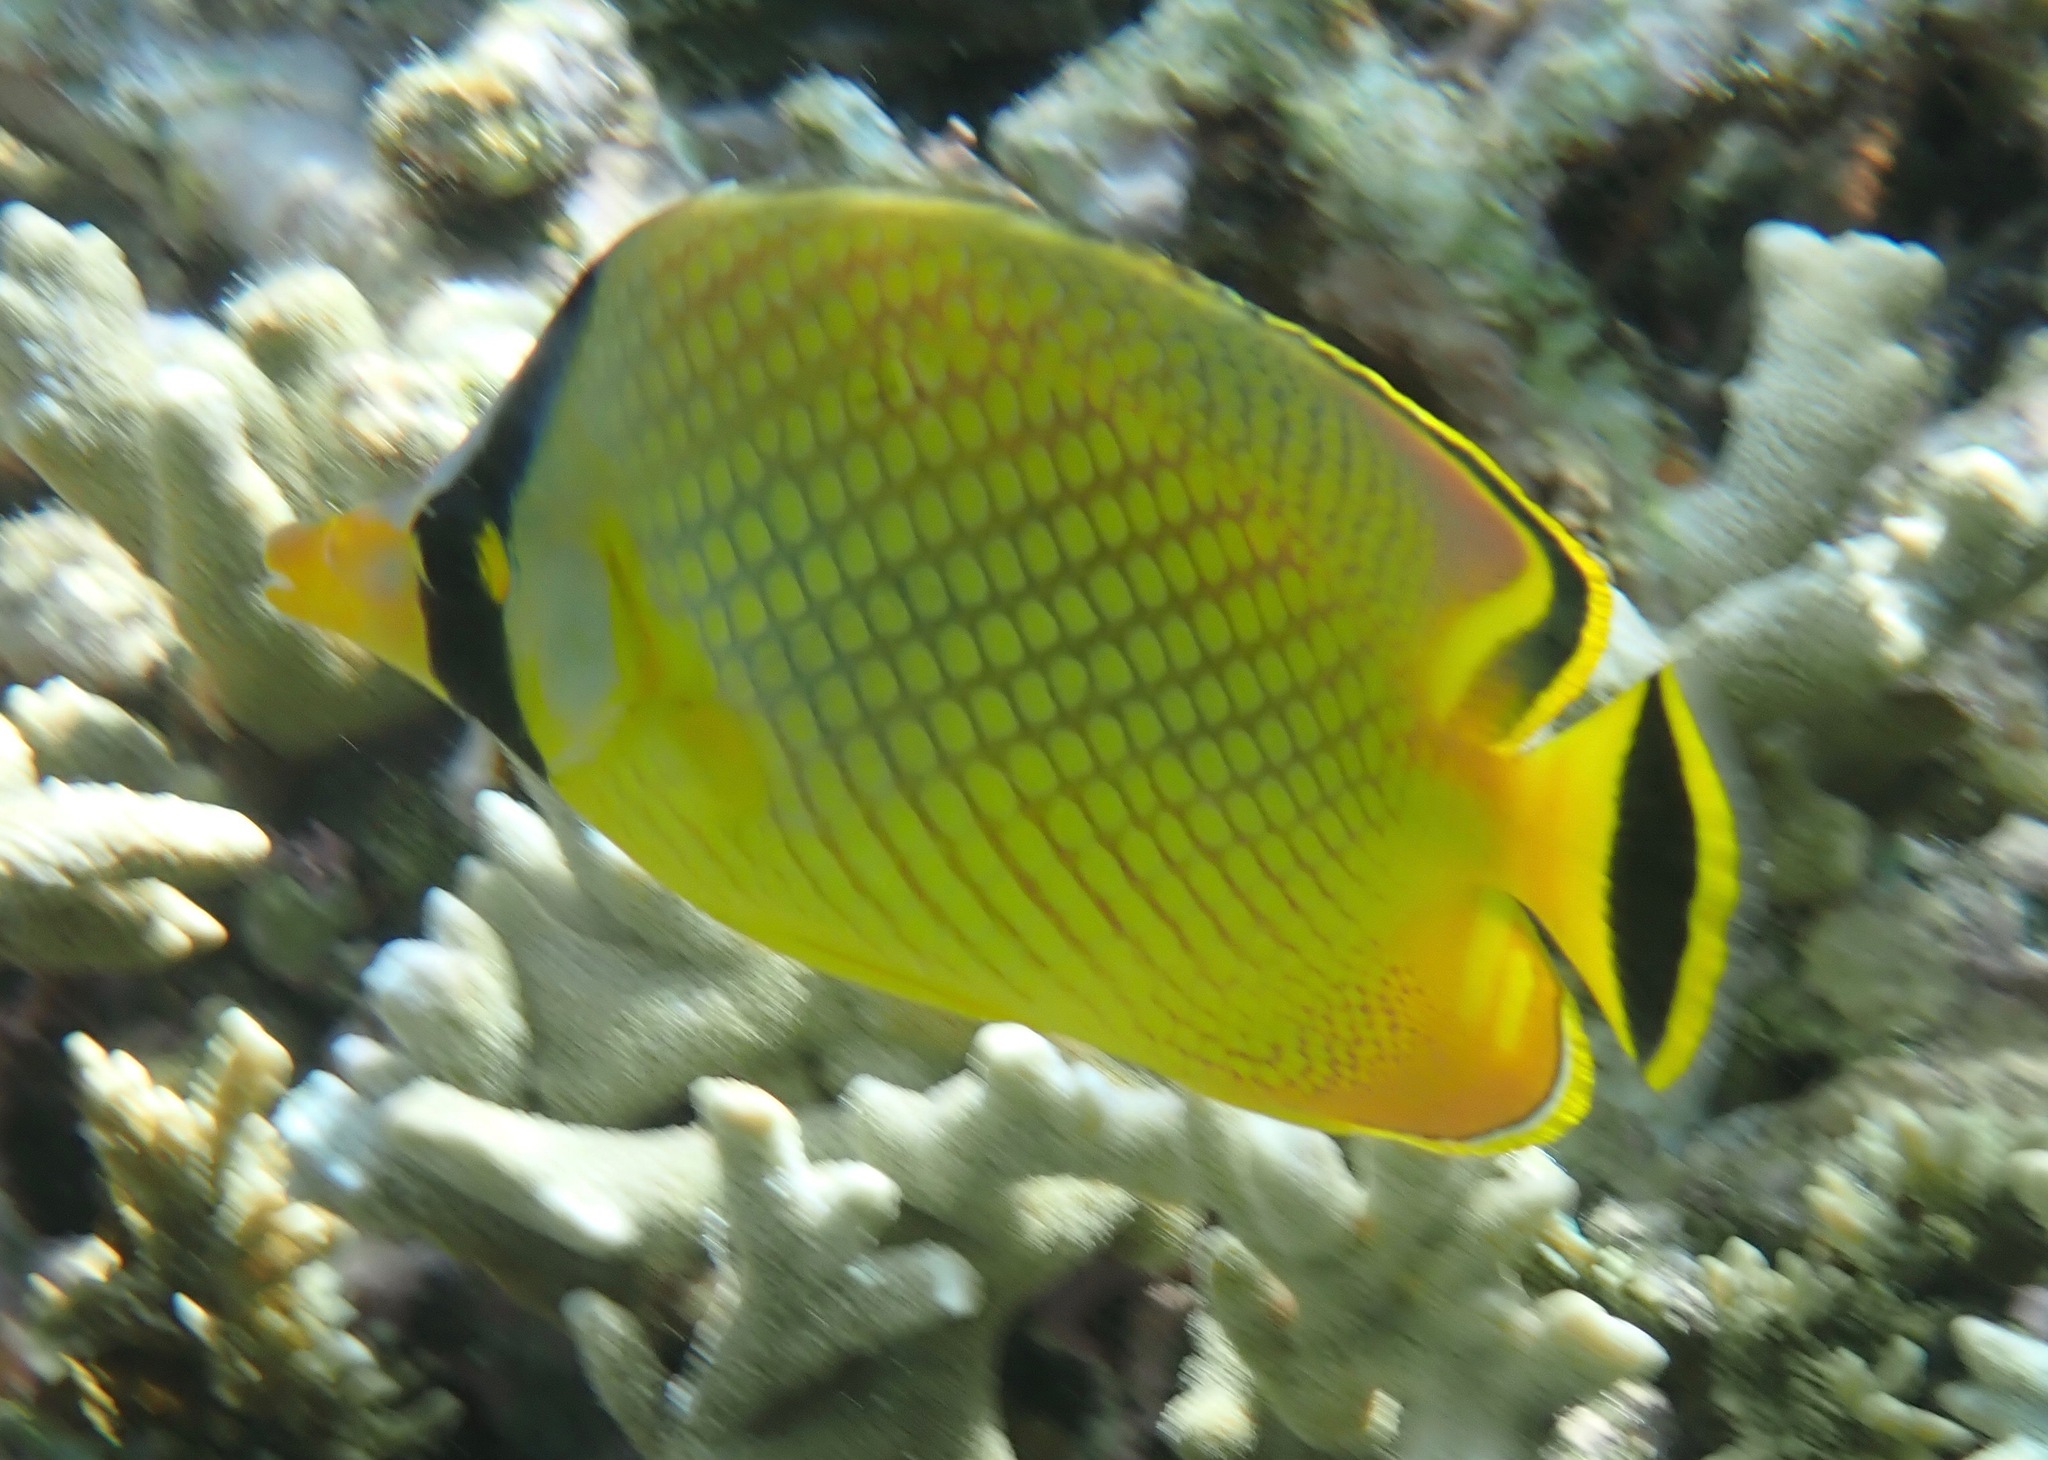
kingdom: Animalia
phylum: Chordata
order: Perciformes
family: Chaetodontidae
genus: Chaetodon
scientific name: Chaetodon rafflesii
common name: Latticed butterflyfish
